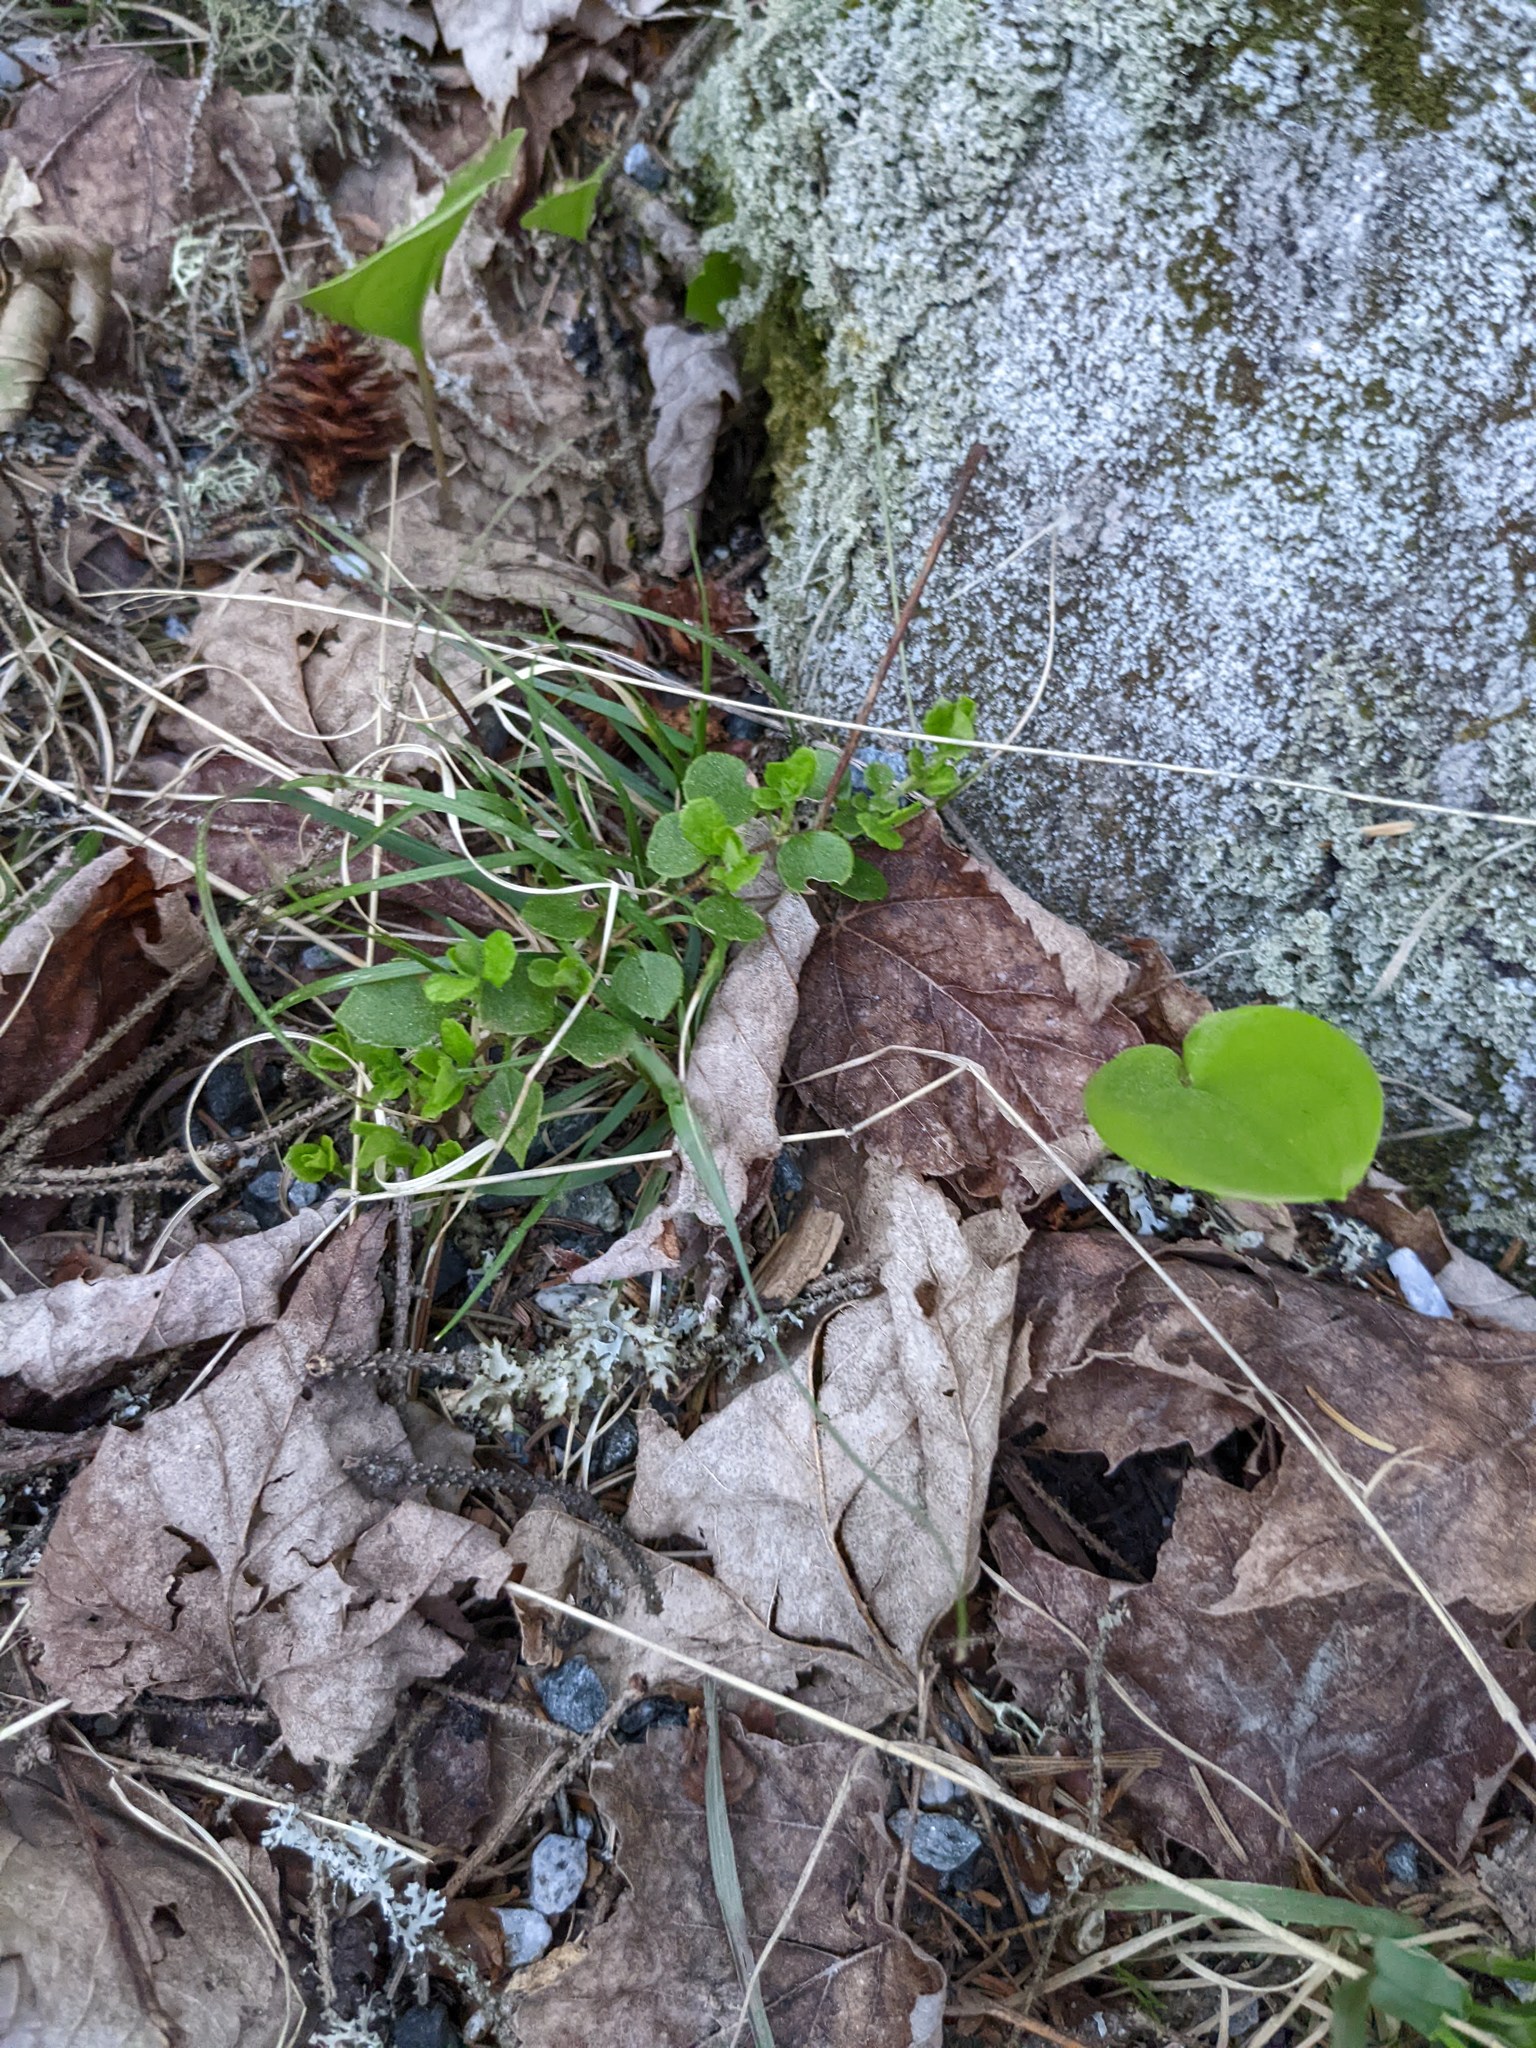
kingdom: Plantae
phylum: Tracheophyta
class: Magnoliopsida
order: Dipsacales
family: Caprifoliaceae
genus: Linnaea
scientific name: Linnaea borealis
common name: Twinflower
